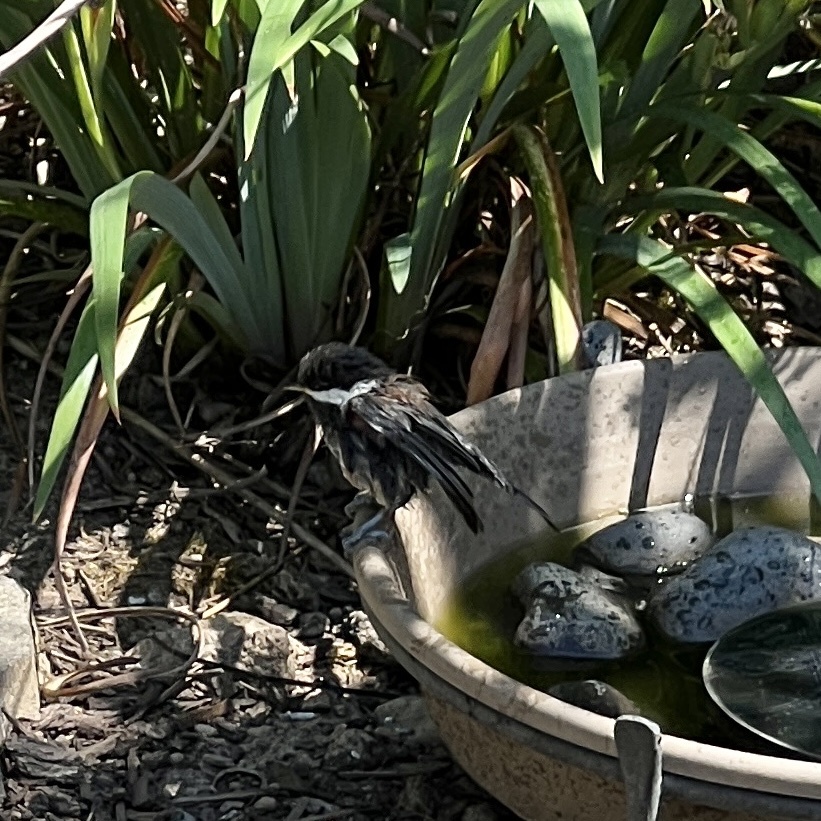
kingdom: Animalia
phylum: Chordata
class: Aves
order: Passeriformes
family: Paridae
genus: Poecile
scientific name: Poecile rufescens
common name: Chestnut-backed chickadee
